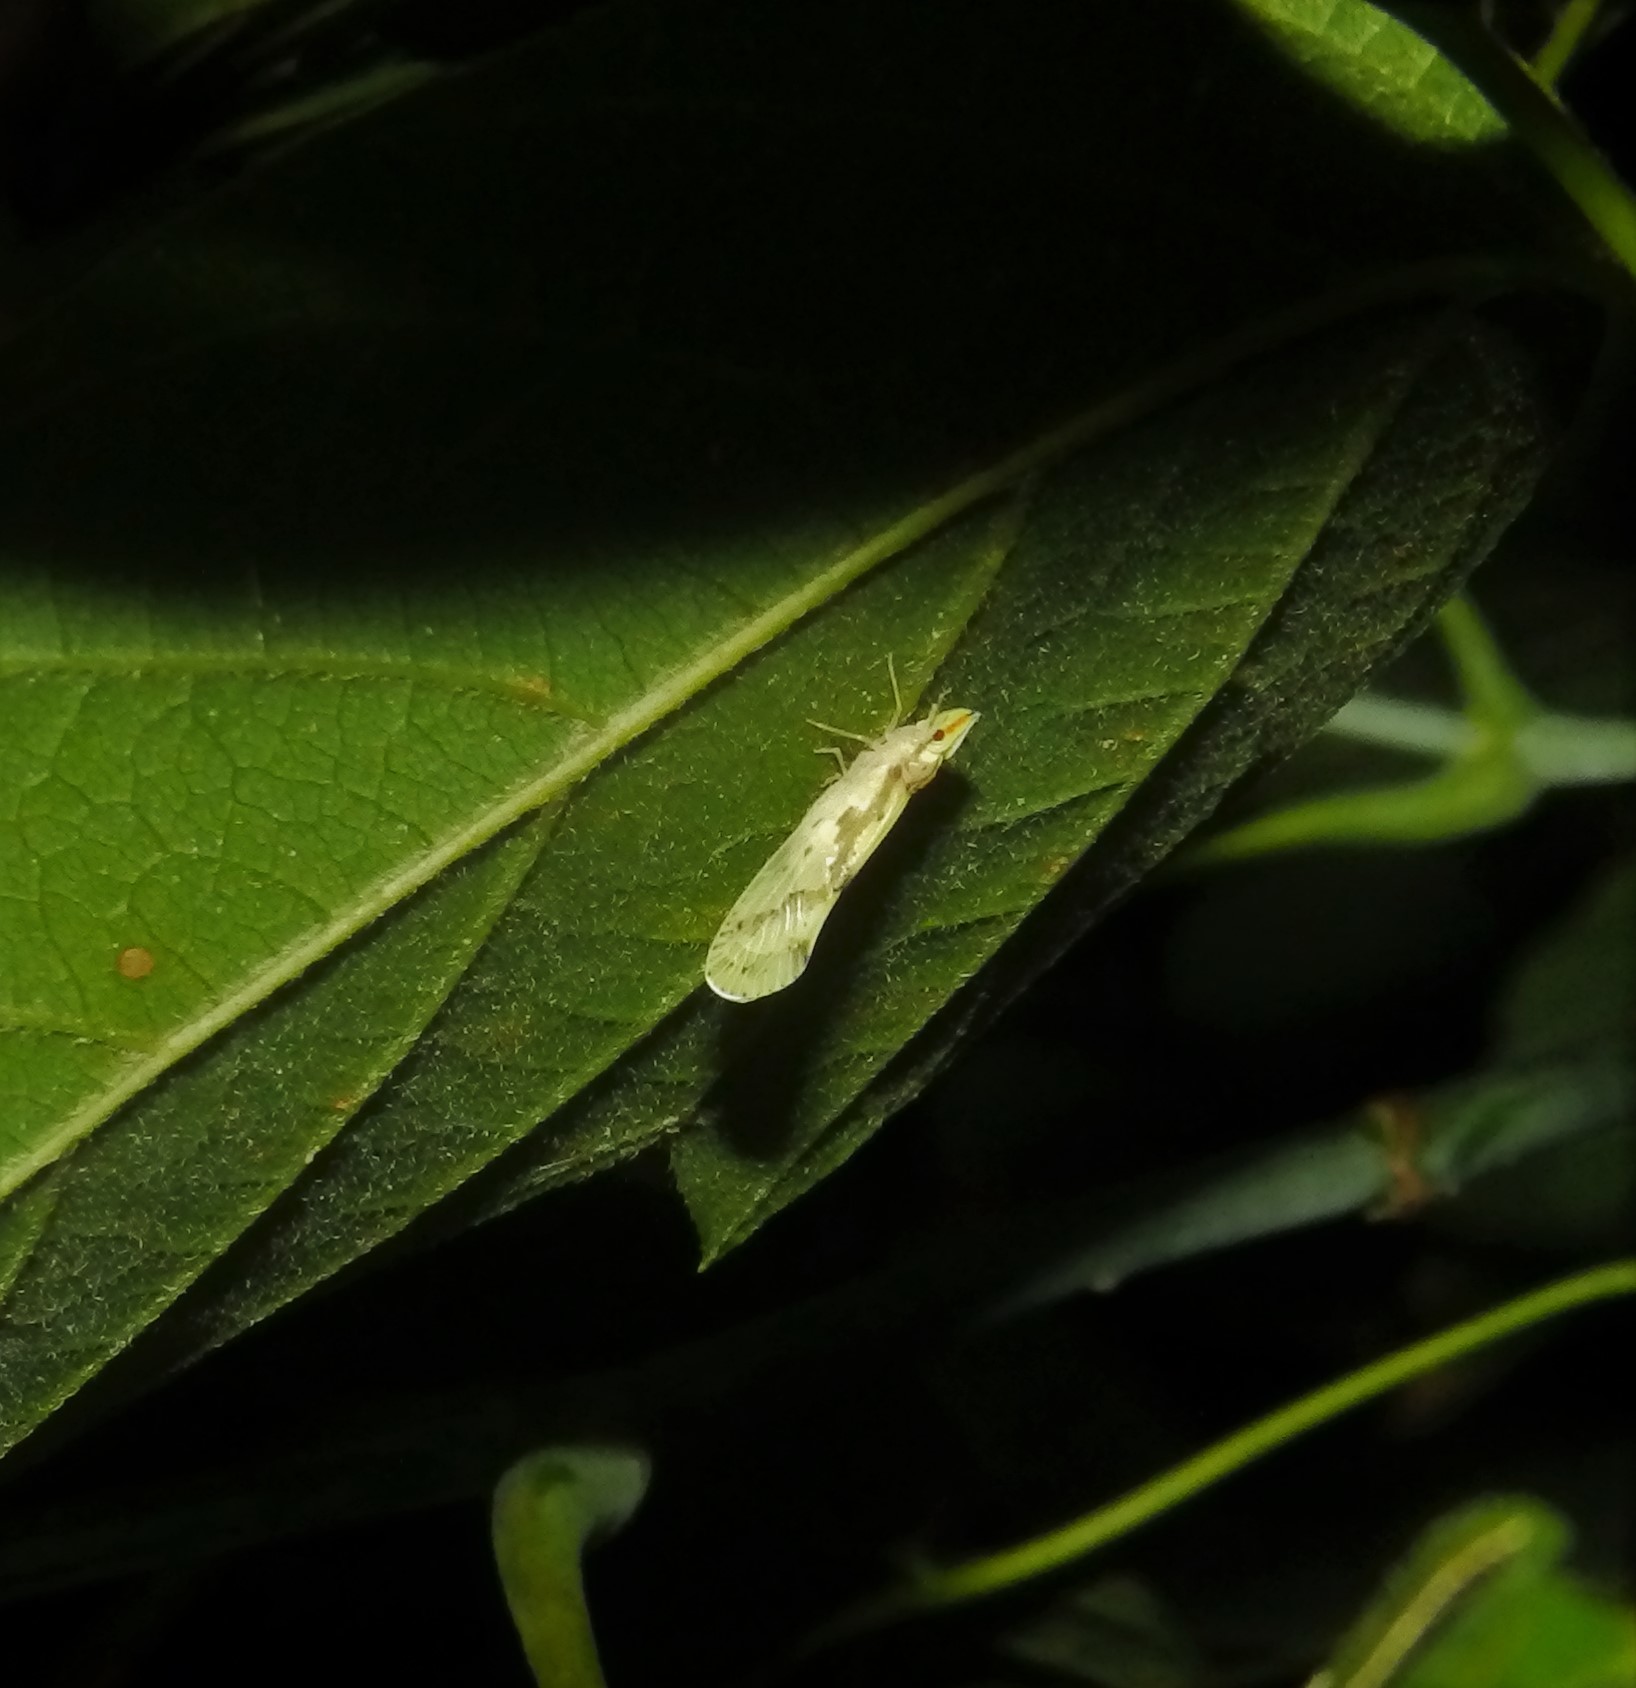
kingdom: Animalia
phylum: Arthropoda
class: Insecta
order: Hemiptera
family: Derbidae
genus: Otiocerus
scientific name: Otiocerus wolfii
